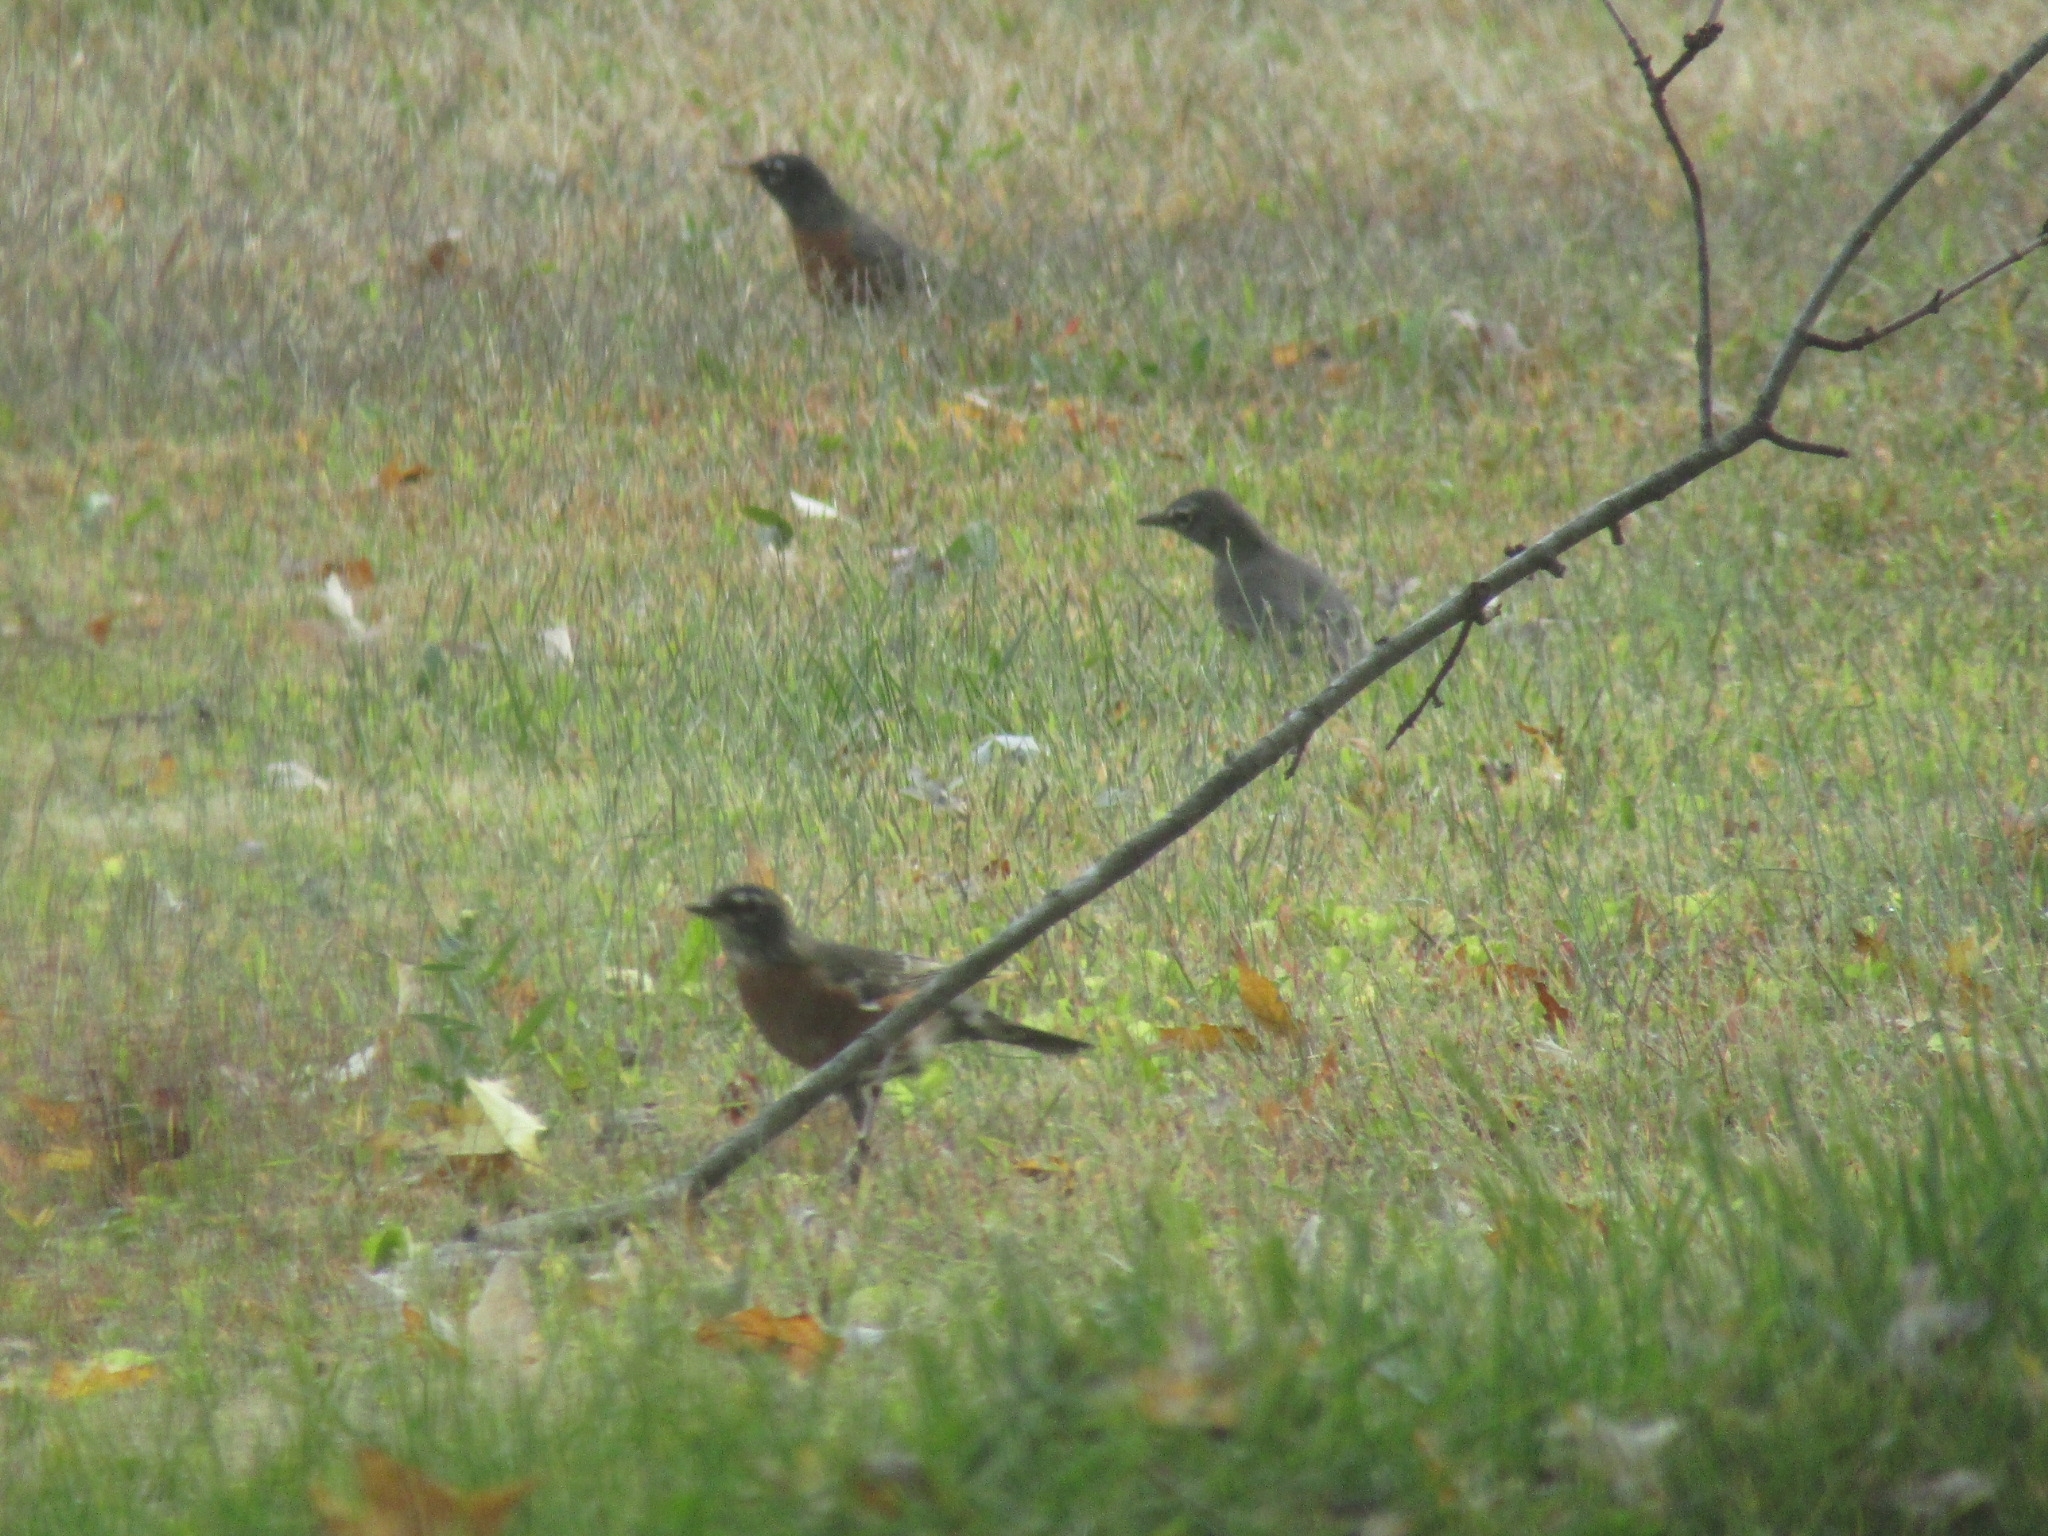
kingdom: Animalia
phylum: Chordata
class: Aves
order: Passeriformes
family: Turdidae
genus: Turdus
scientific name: Turdus migratorius
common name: American robin
